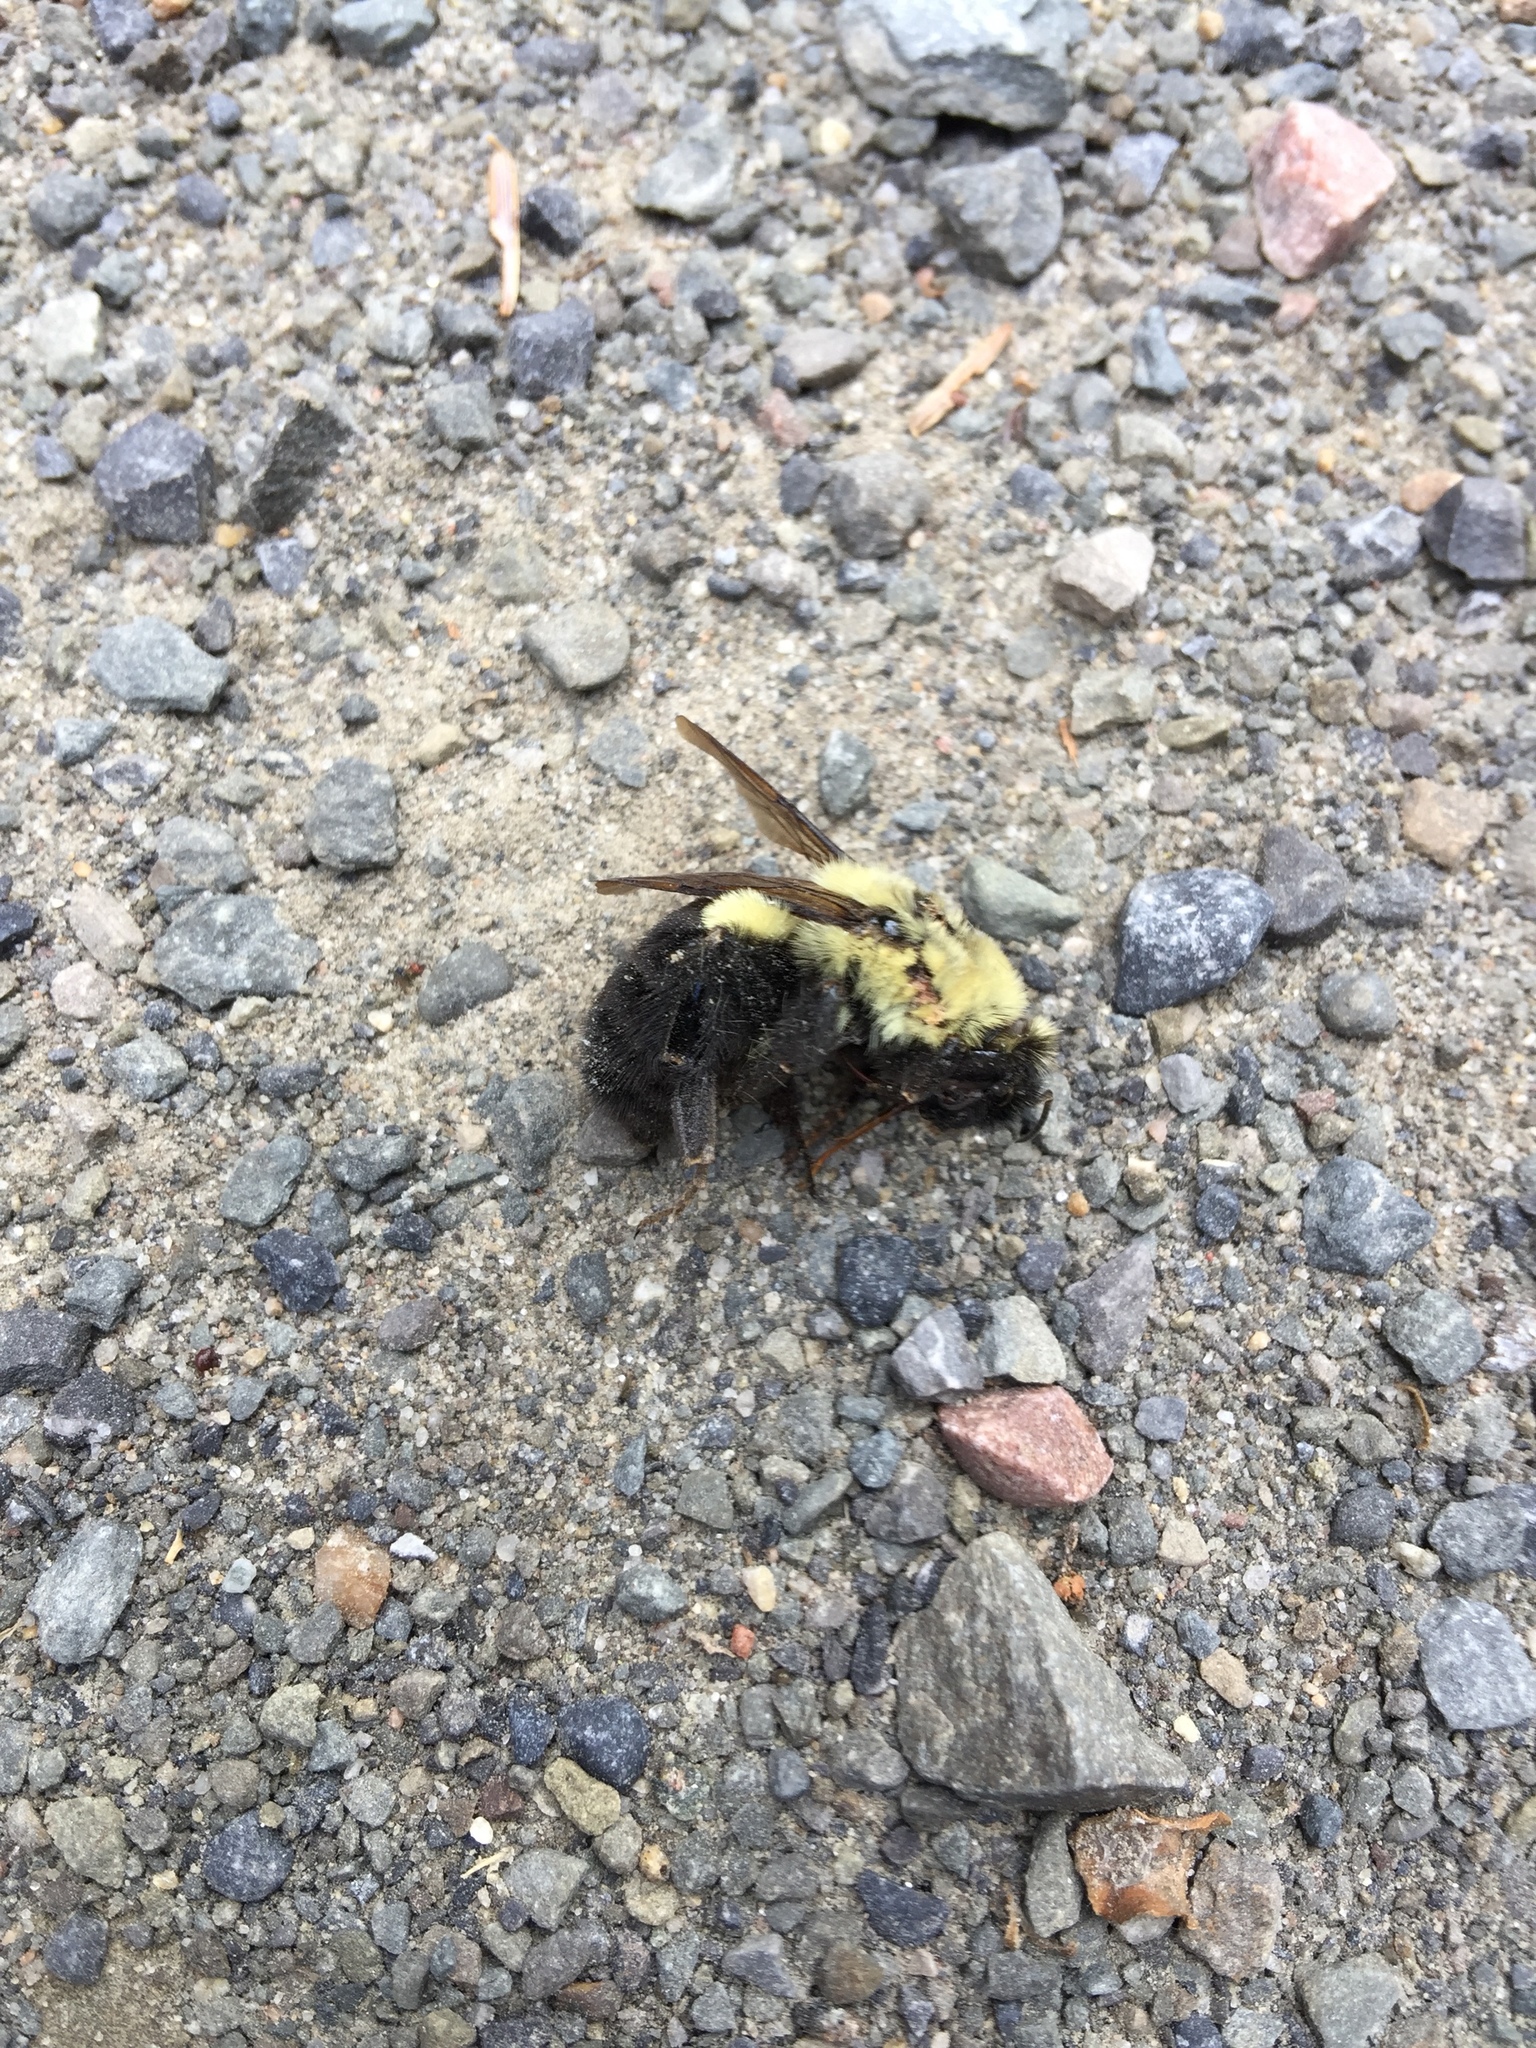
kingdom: Animalia
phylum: Arthropoda
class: Insecta
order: Hymenoptera
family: Apidae
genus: Bombus
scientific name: Bombus impatiens
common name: Common eastern bumble bee
